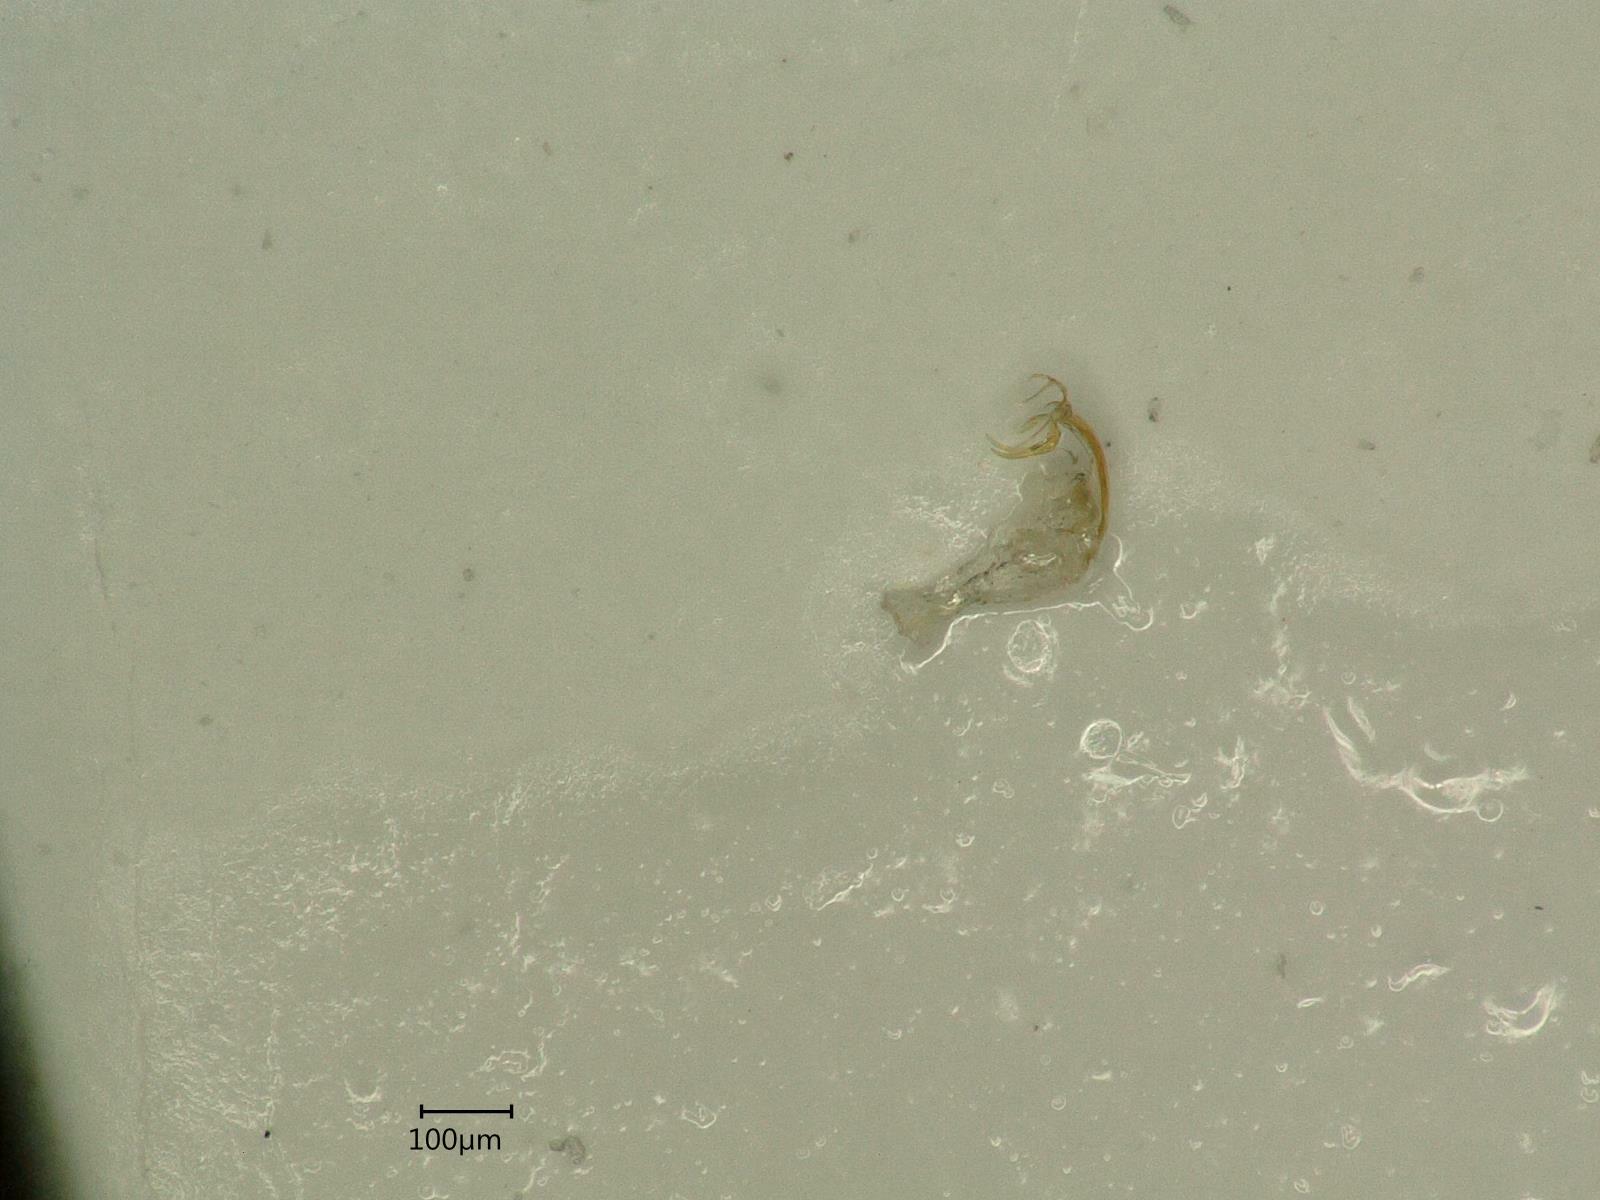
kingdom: Animalia
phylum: Arthropoda
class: Insecta
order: Hemiptera
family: Cicadellidae
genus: Edwardsiana
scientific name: Edwardsiana ulmiphagus
